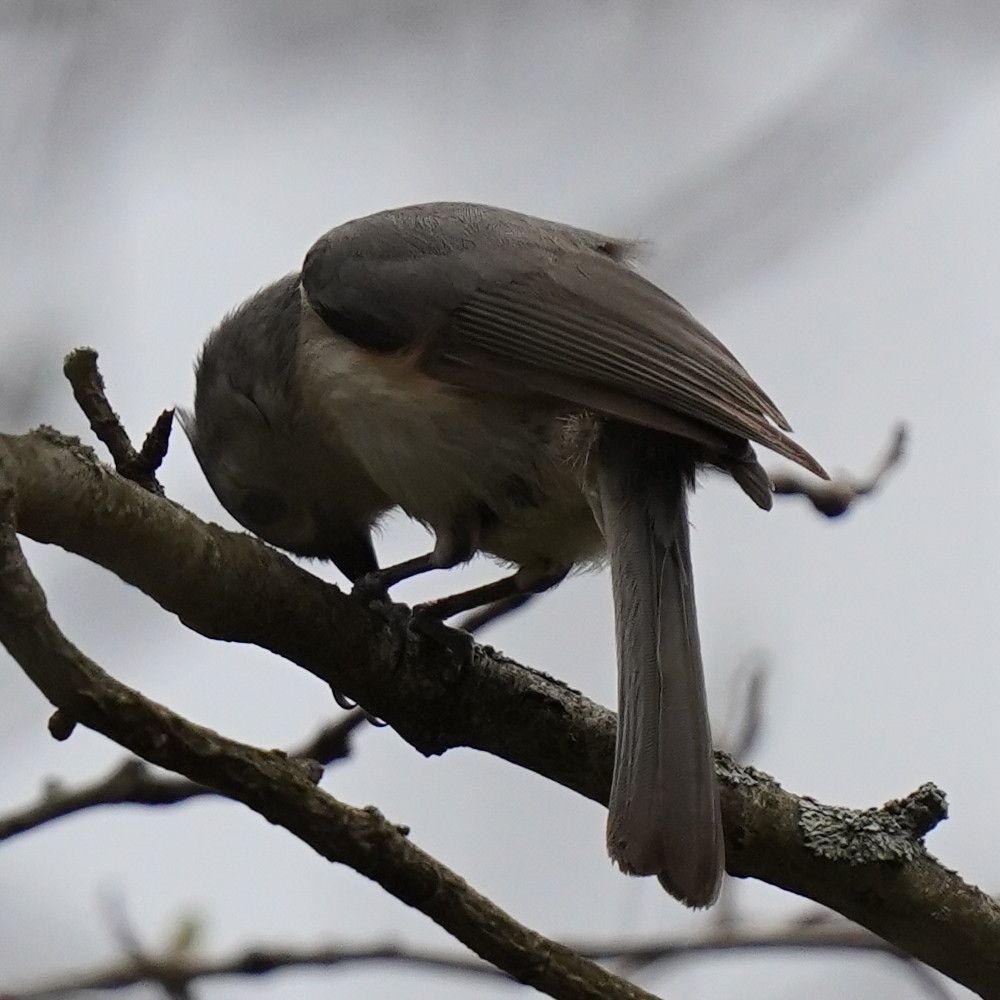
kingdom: Animalia
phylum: Chordata
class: Aves
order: Passeriformes
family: Paridae
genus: Baeolophus
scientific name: Baeolophus bicolor
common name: Tufted titmouse
